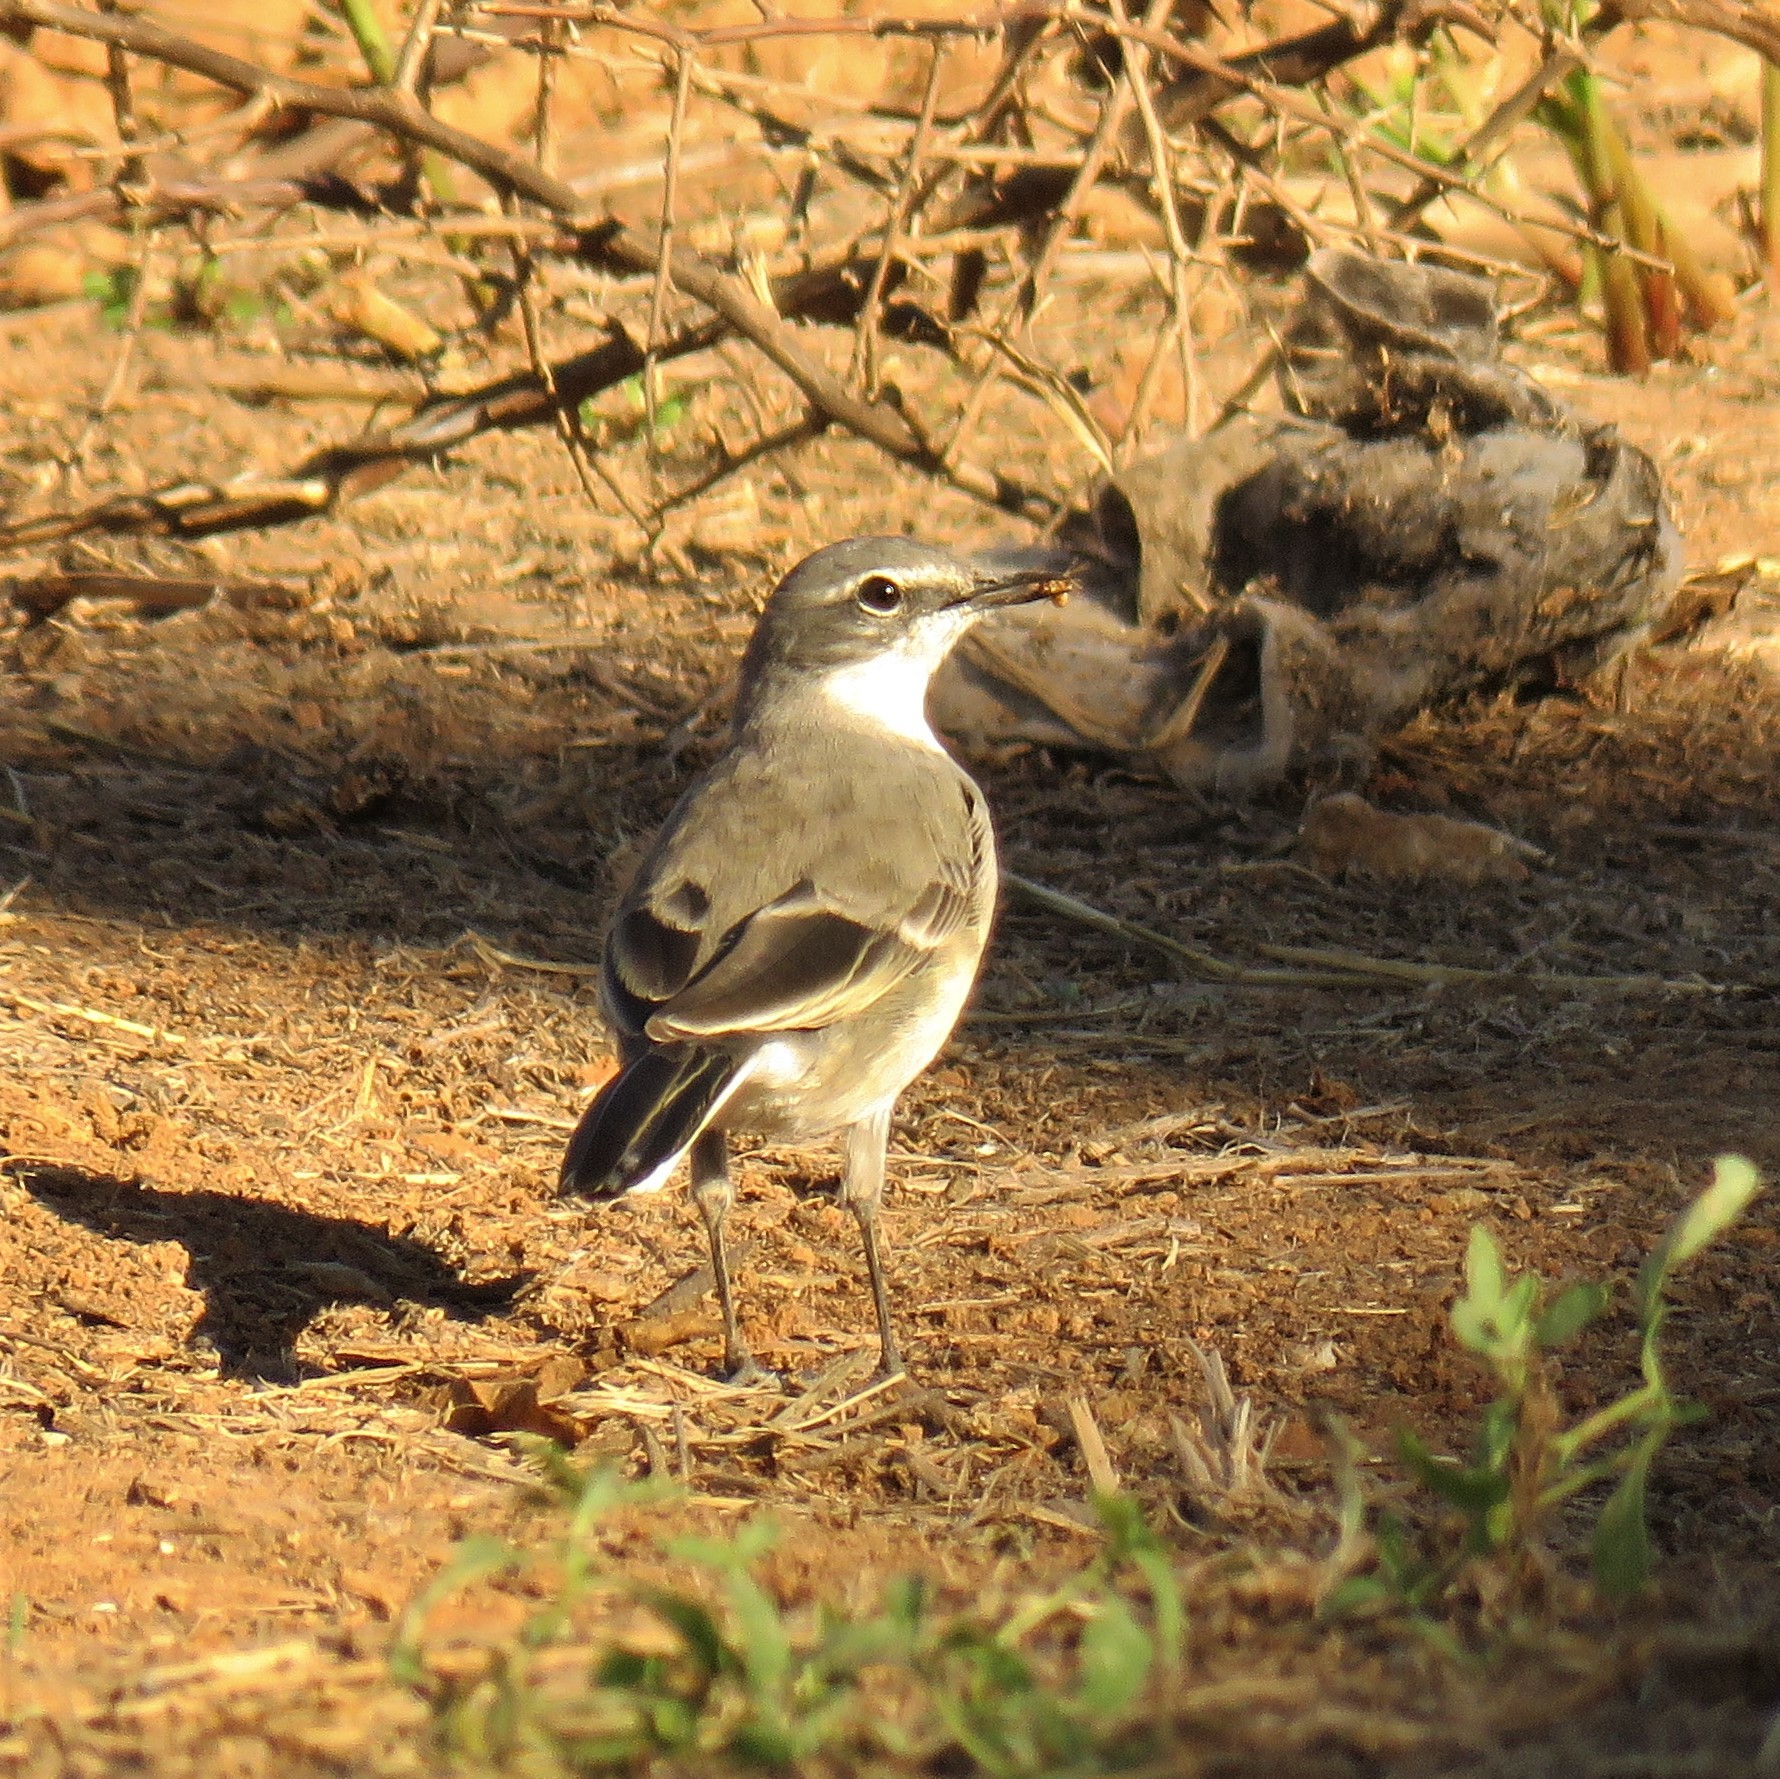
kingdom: Animalia
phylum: Chordata
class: Aves
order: Passeriformes
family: Motacillidae
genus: Motacilla
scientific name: Motacilla capensis
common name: Cape wagtail
